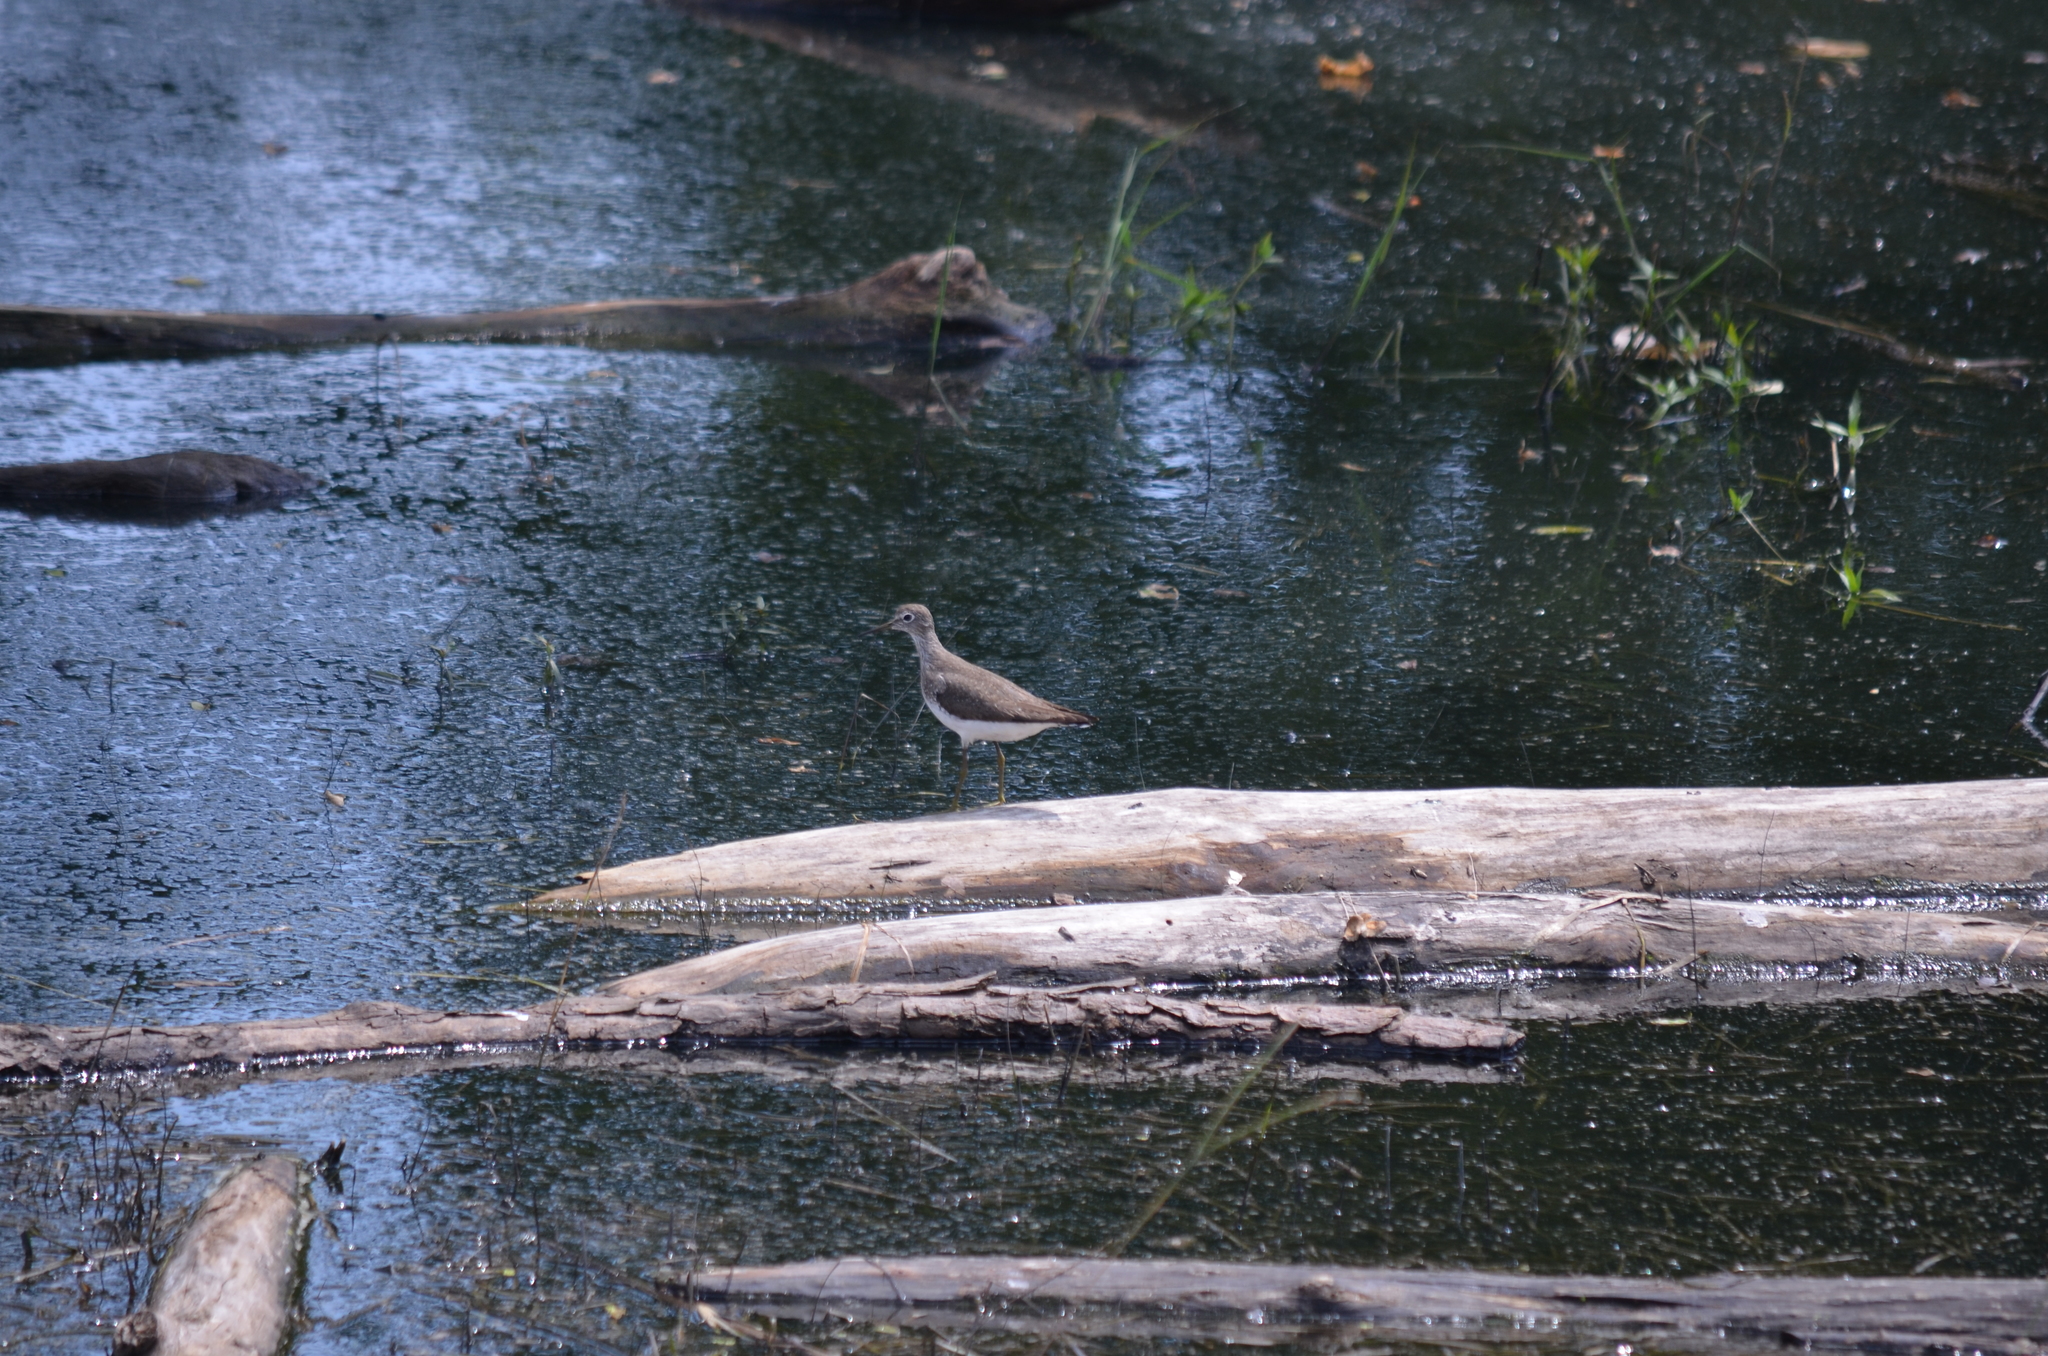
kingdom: Animalia
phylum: Chordata
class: Aves
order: Charadriiformes
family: Scolopacidae
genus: Tringa
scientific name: Tringa solitaria
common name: Solitary sandpiper
